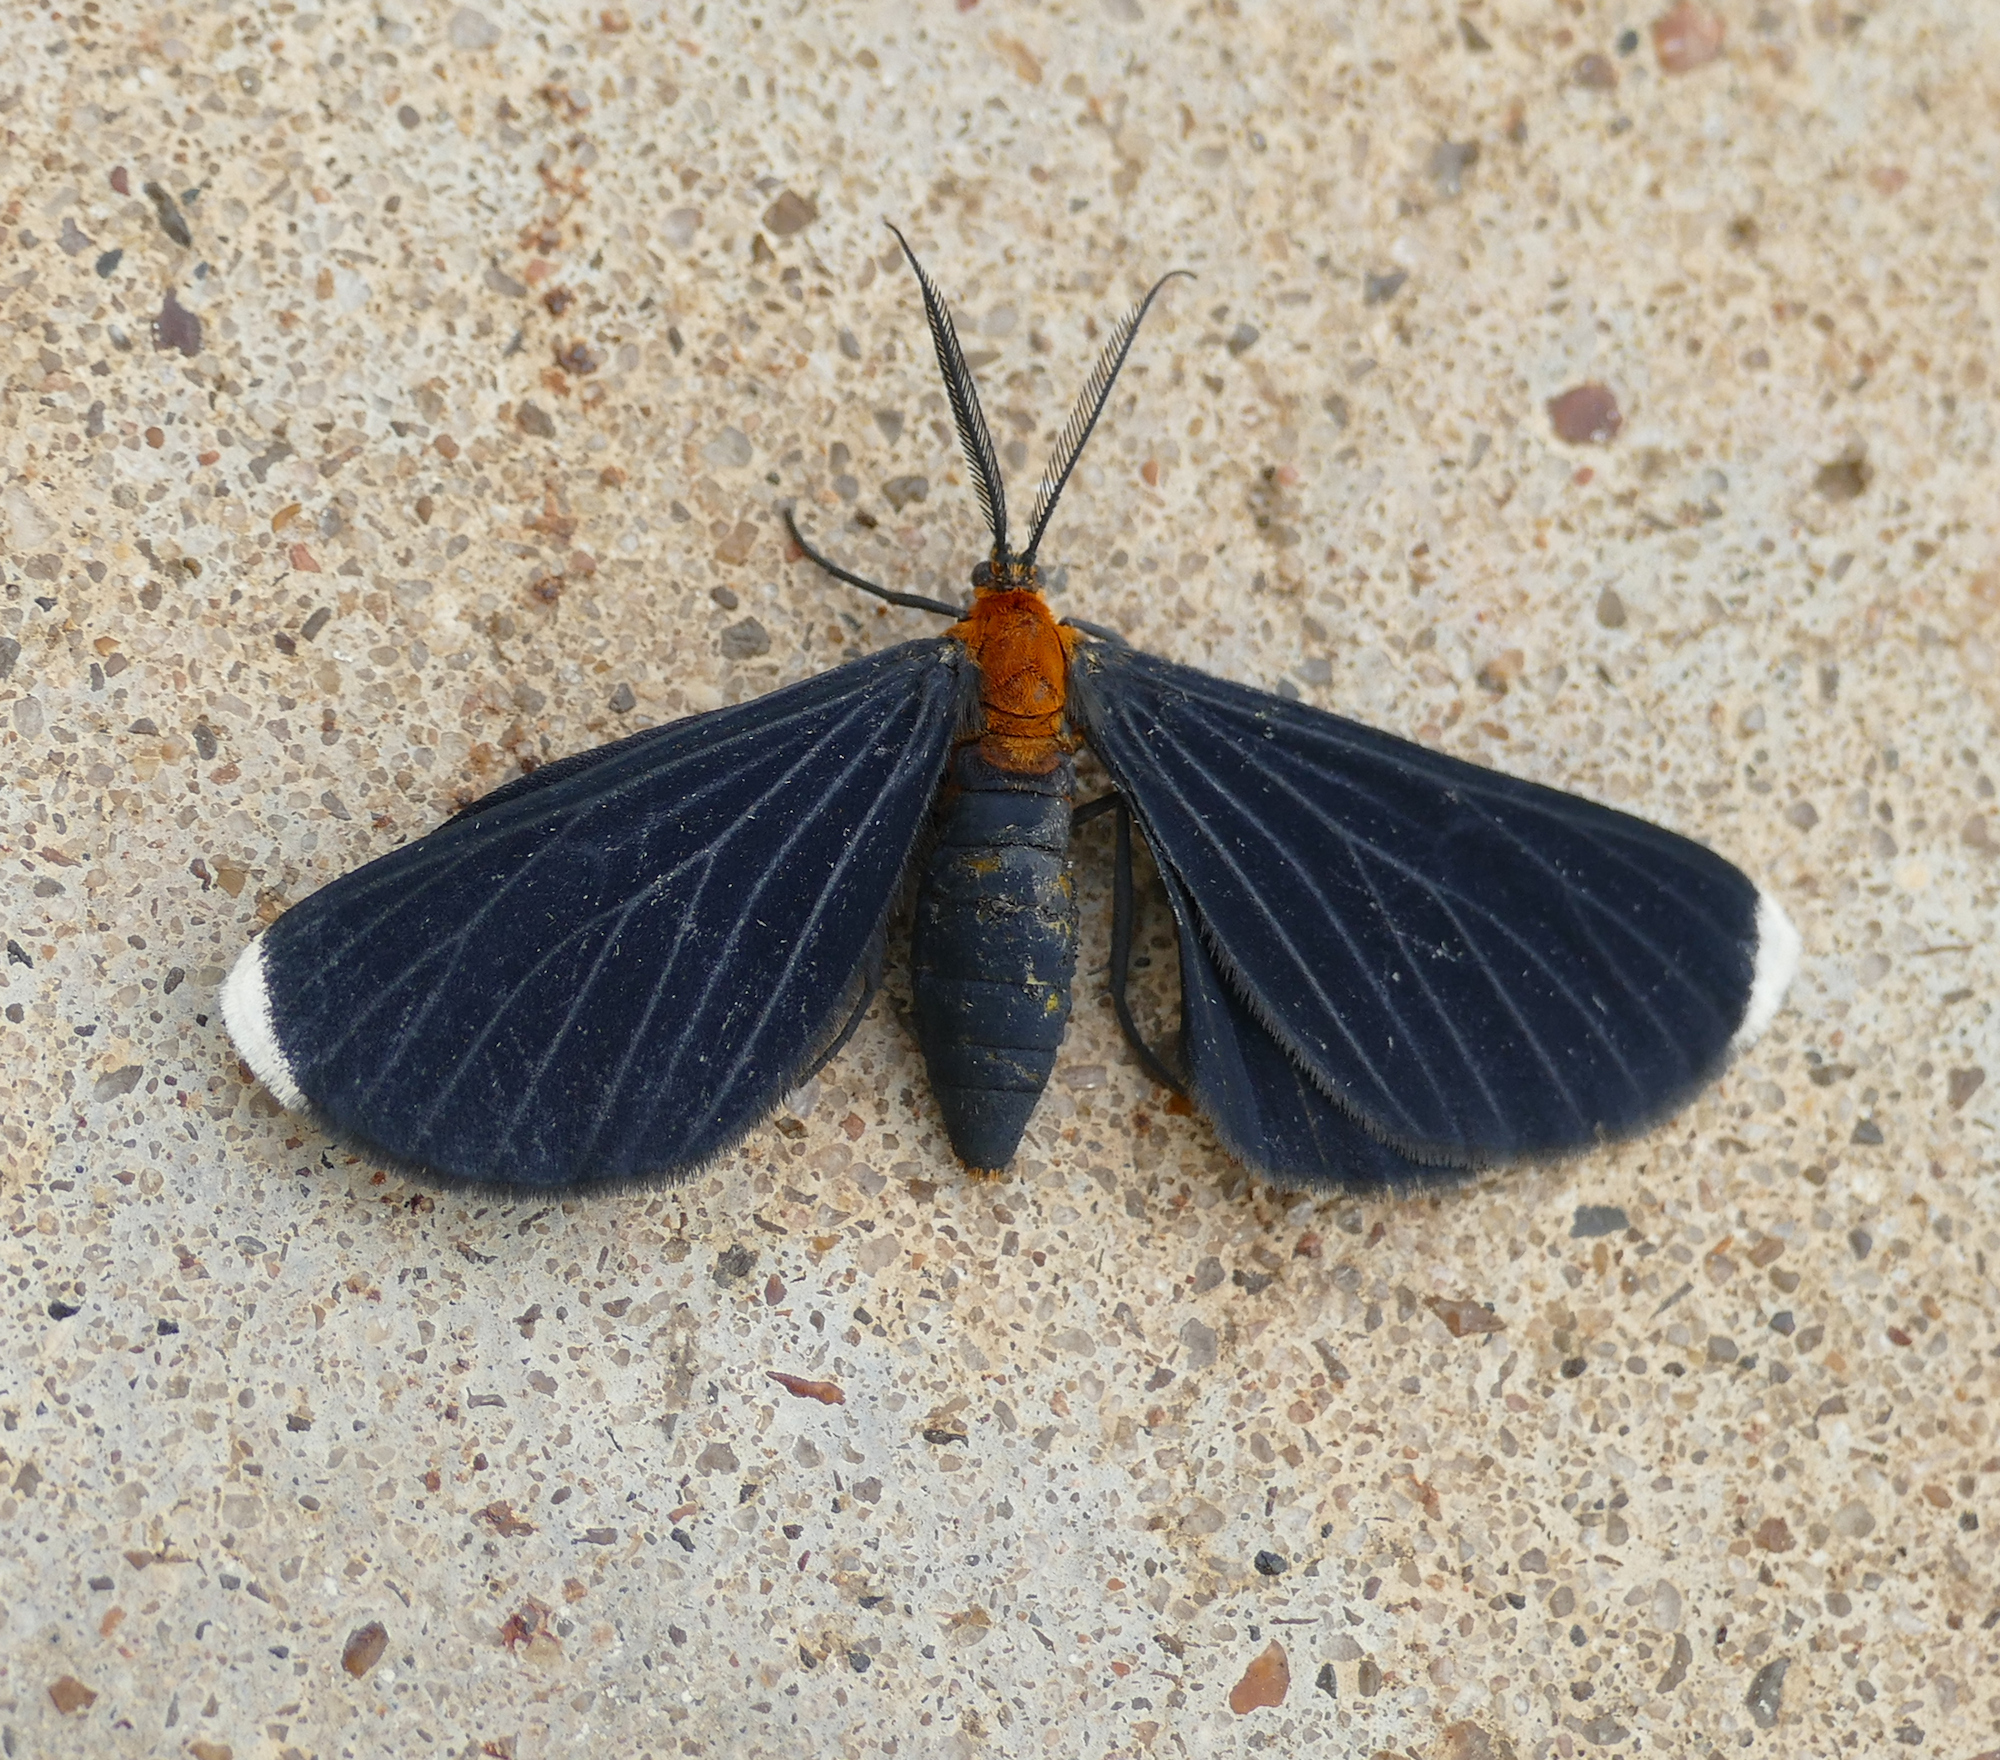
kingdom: Animalia
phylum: Arthropoda
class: Insecta
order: Lepidoptera
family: Geometridae
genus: Melanchroia
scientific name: Melanchroia chephise
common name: White-tipped black
